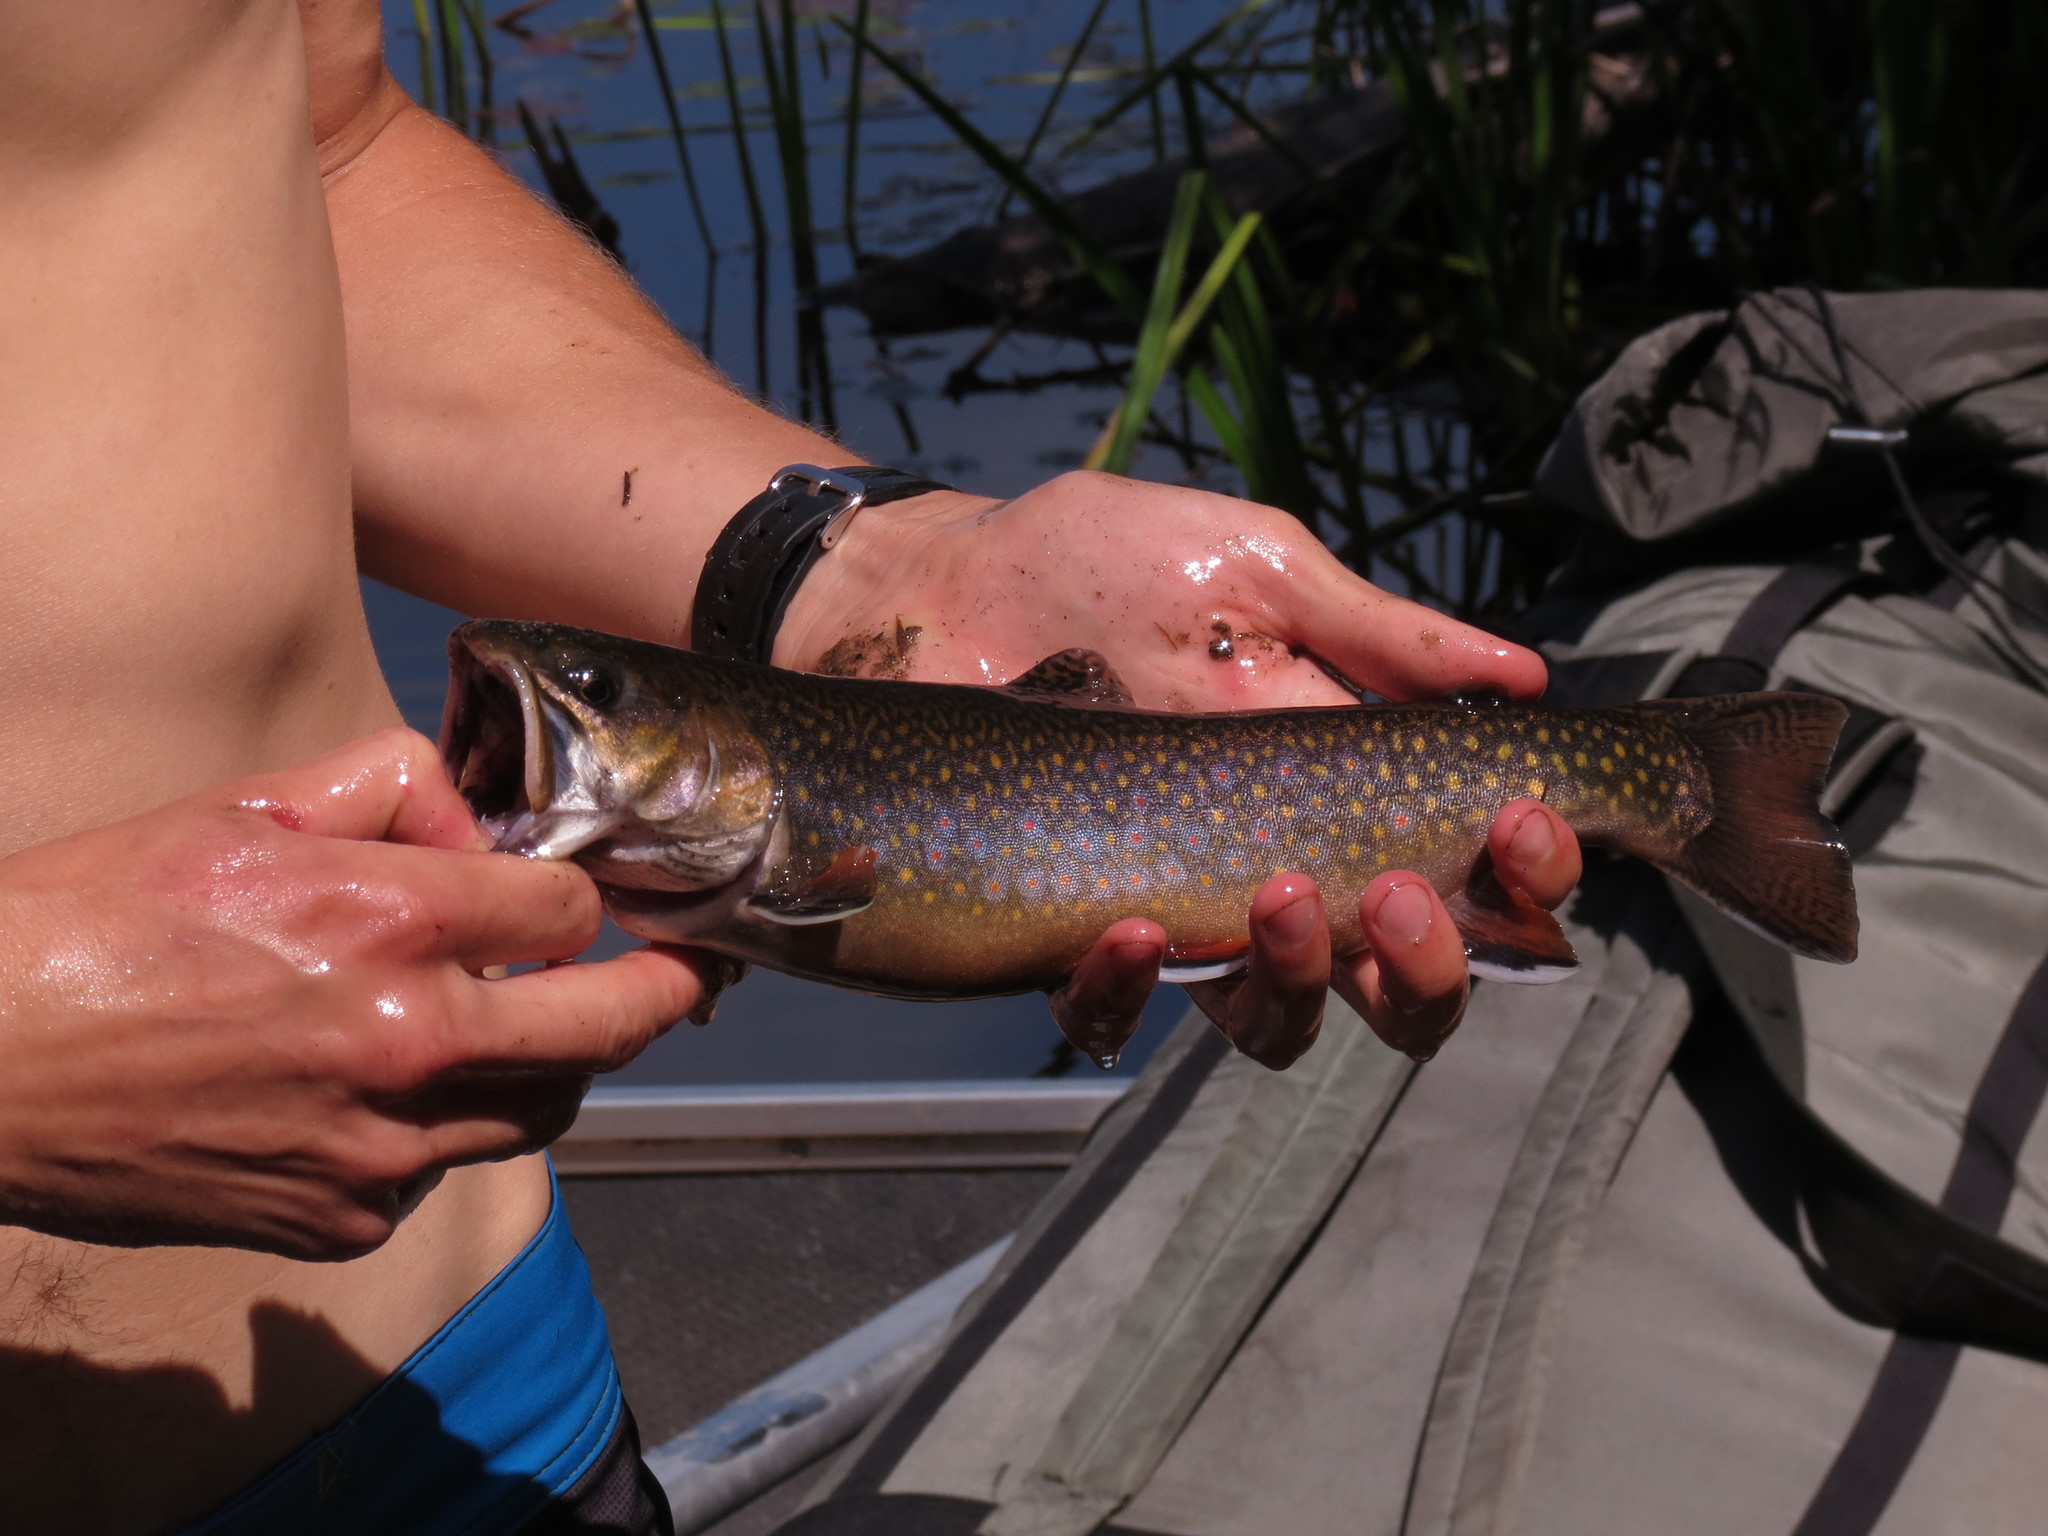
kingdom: Animalia
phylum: Chordata
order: Salmoniformes
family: Salmonidae
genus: Salvelinus
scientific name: Salvelinus fontinalis
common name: Brook trout
